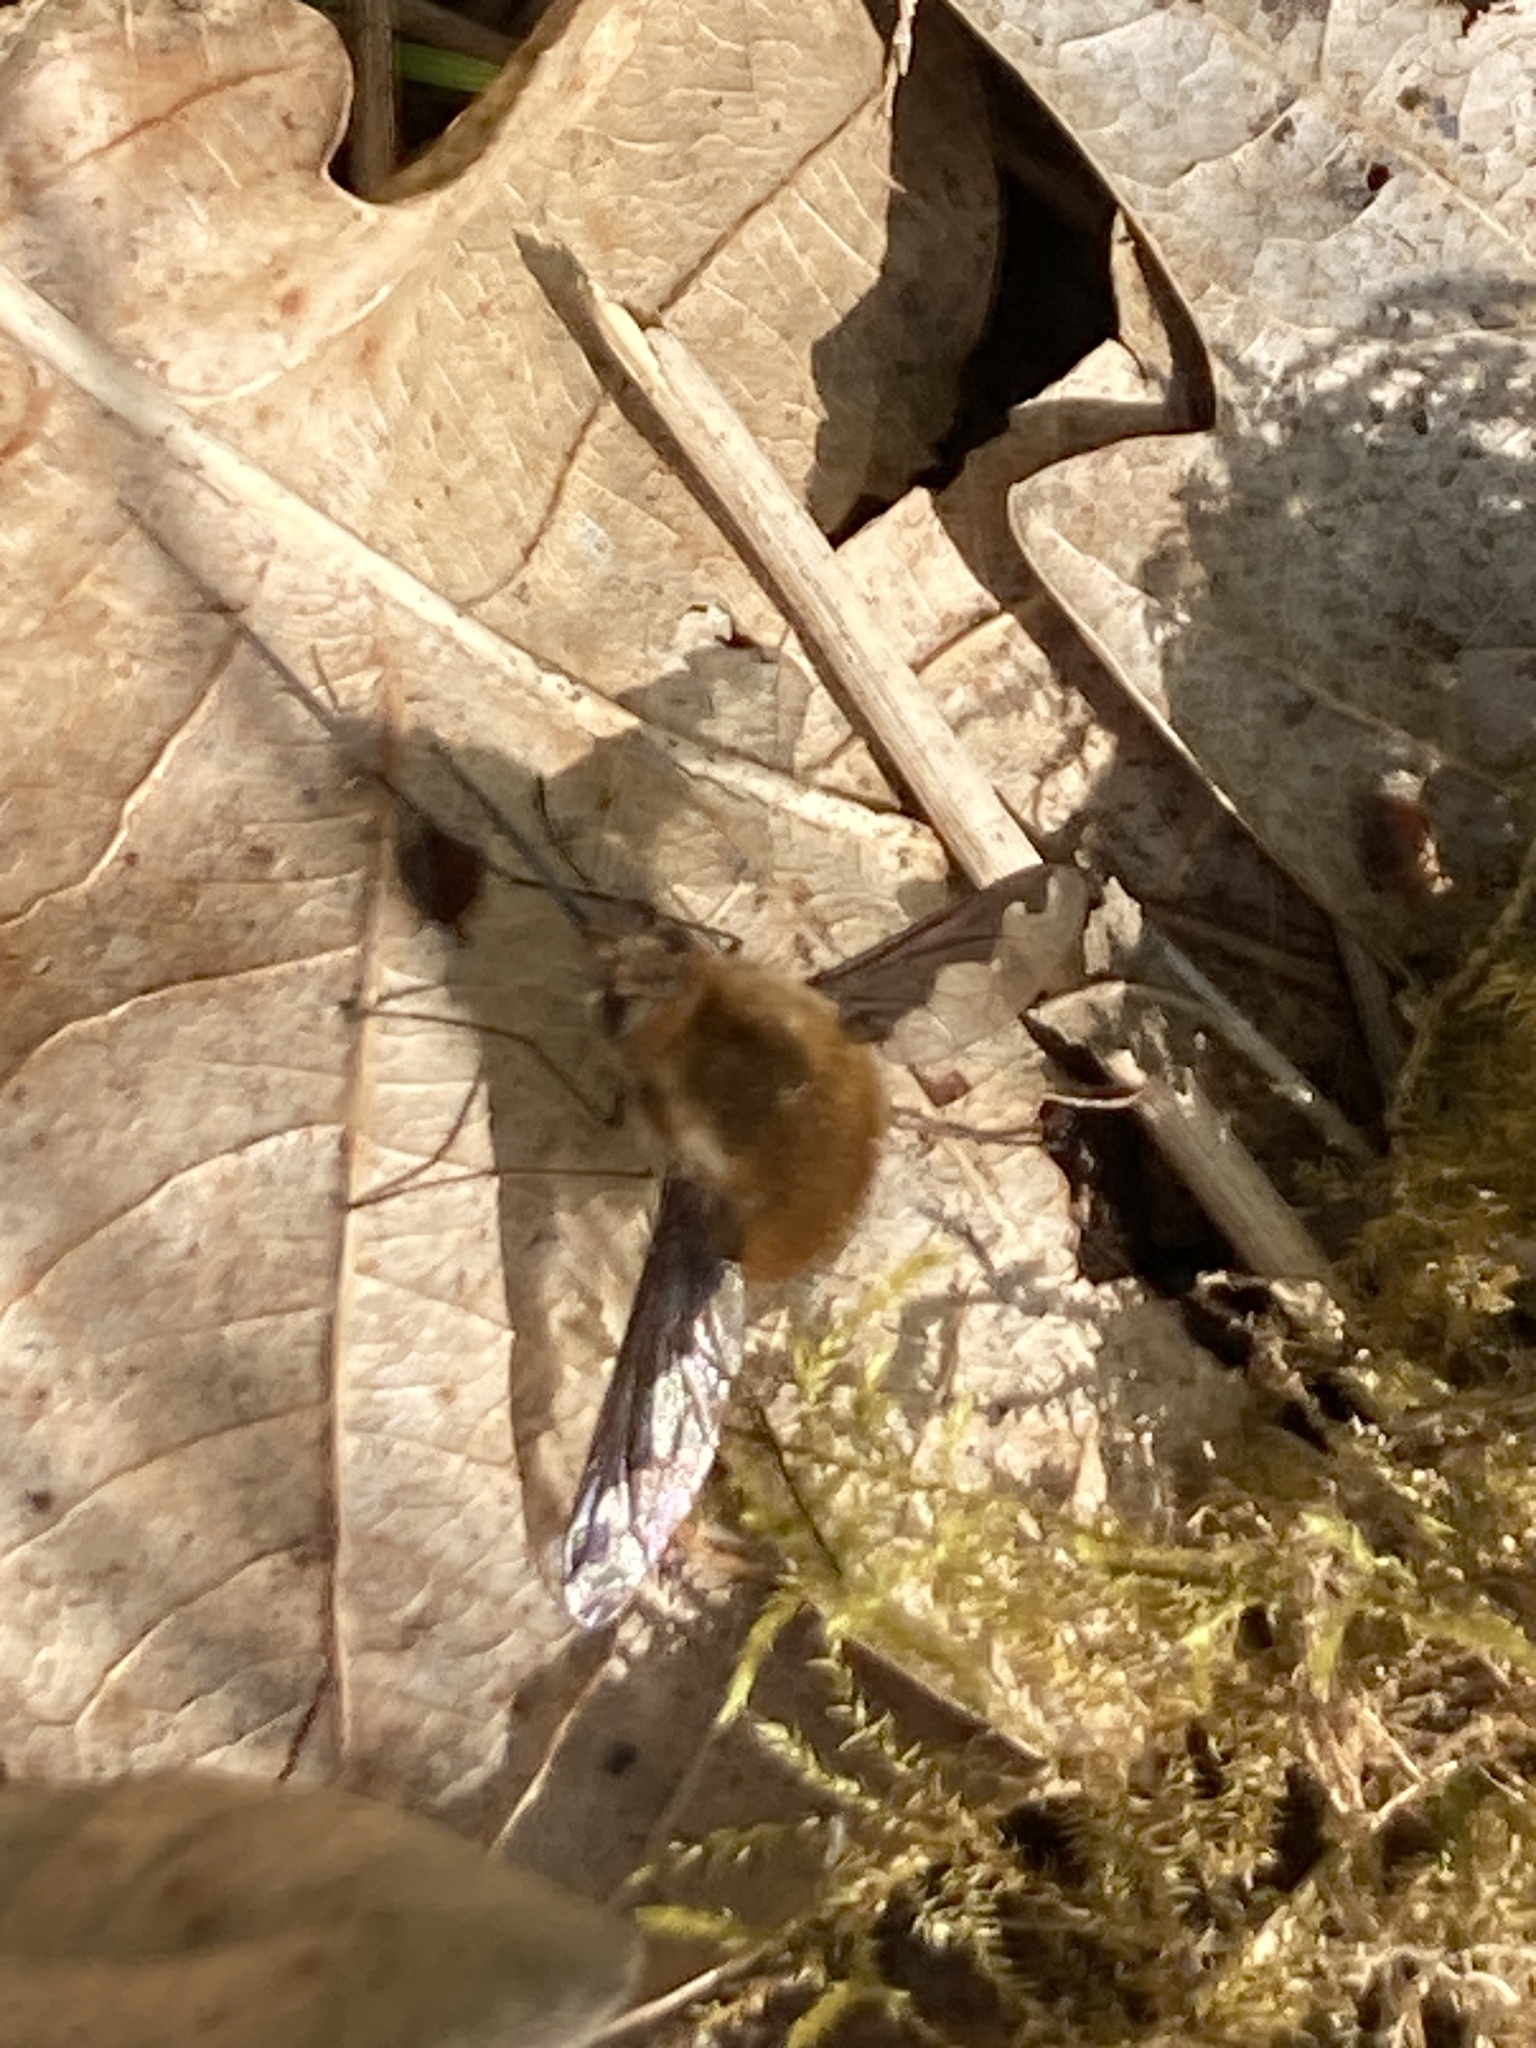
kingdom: Animalia
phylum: Arthropoda
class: Insecta
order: Diptera
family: Bombyliidae
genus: Bombylius
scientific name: Bombylius major
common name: Bee fly
